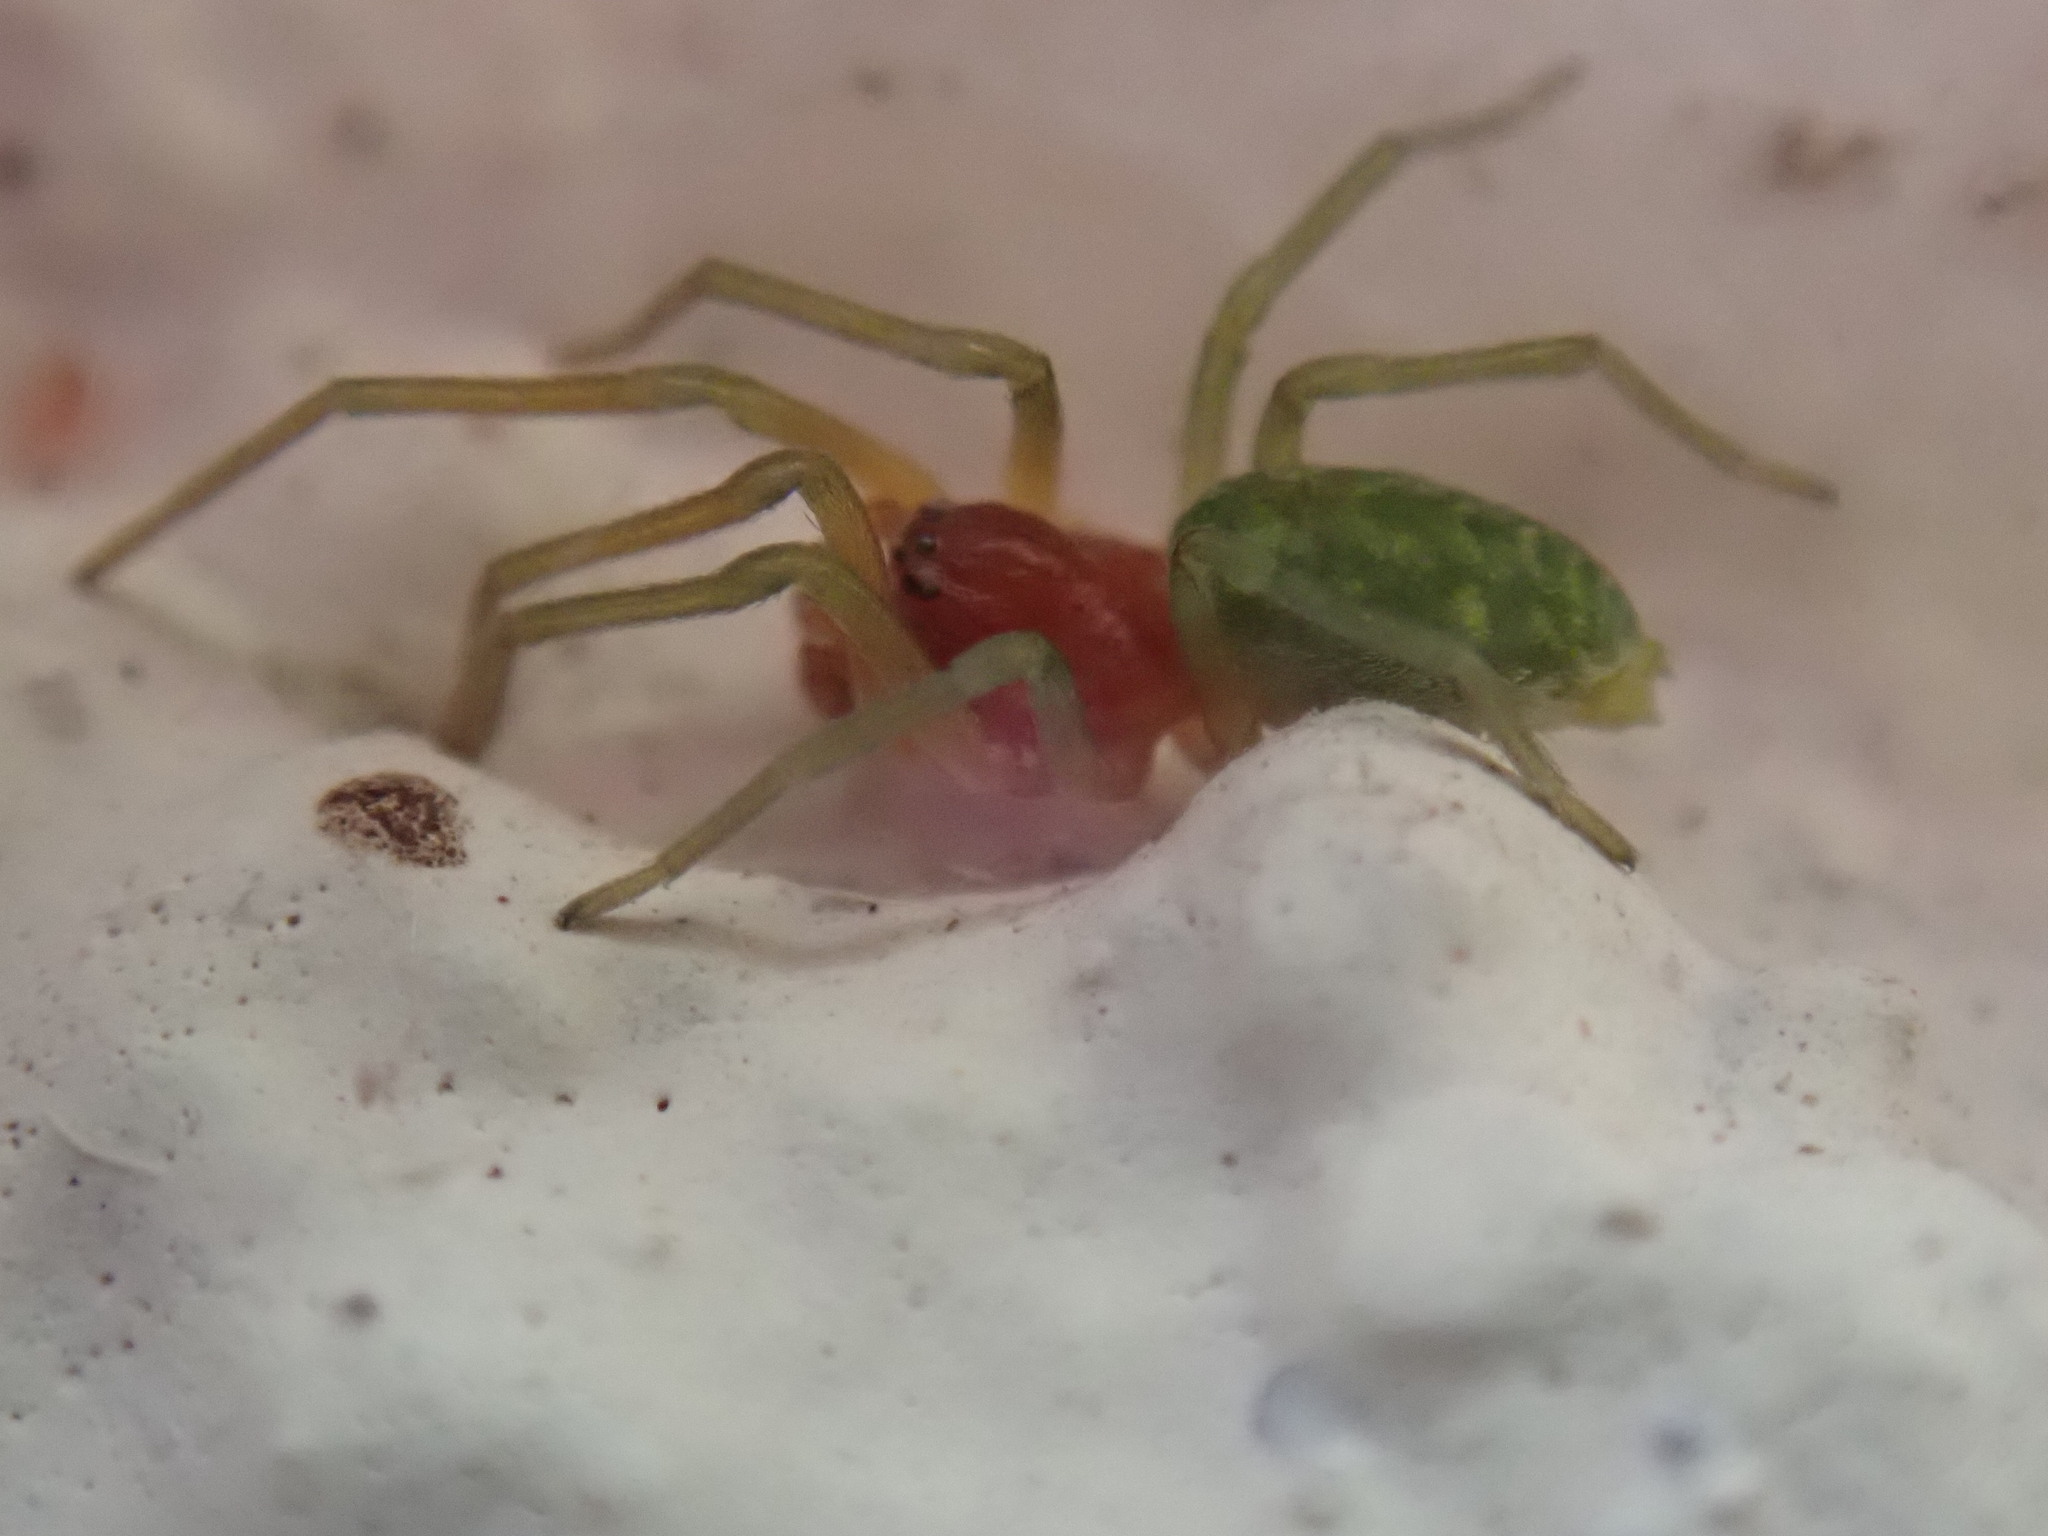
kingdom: Animalia
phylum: Arthropoda
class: Arachnida
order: Araneae
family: Dictynidae
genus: Nigma
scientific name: Nigma walckenaeri
